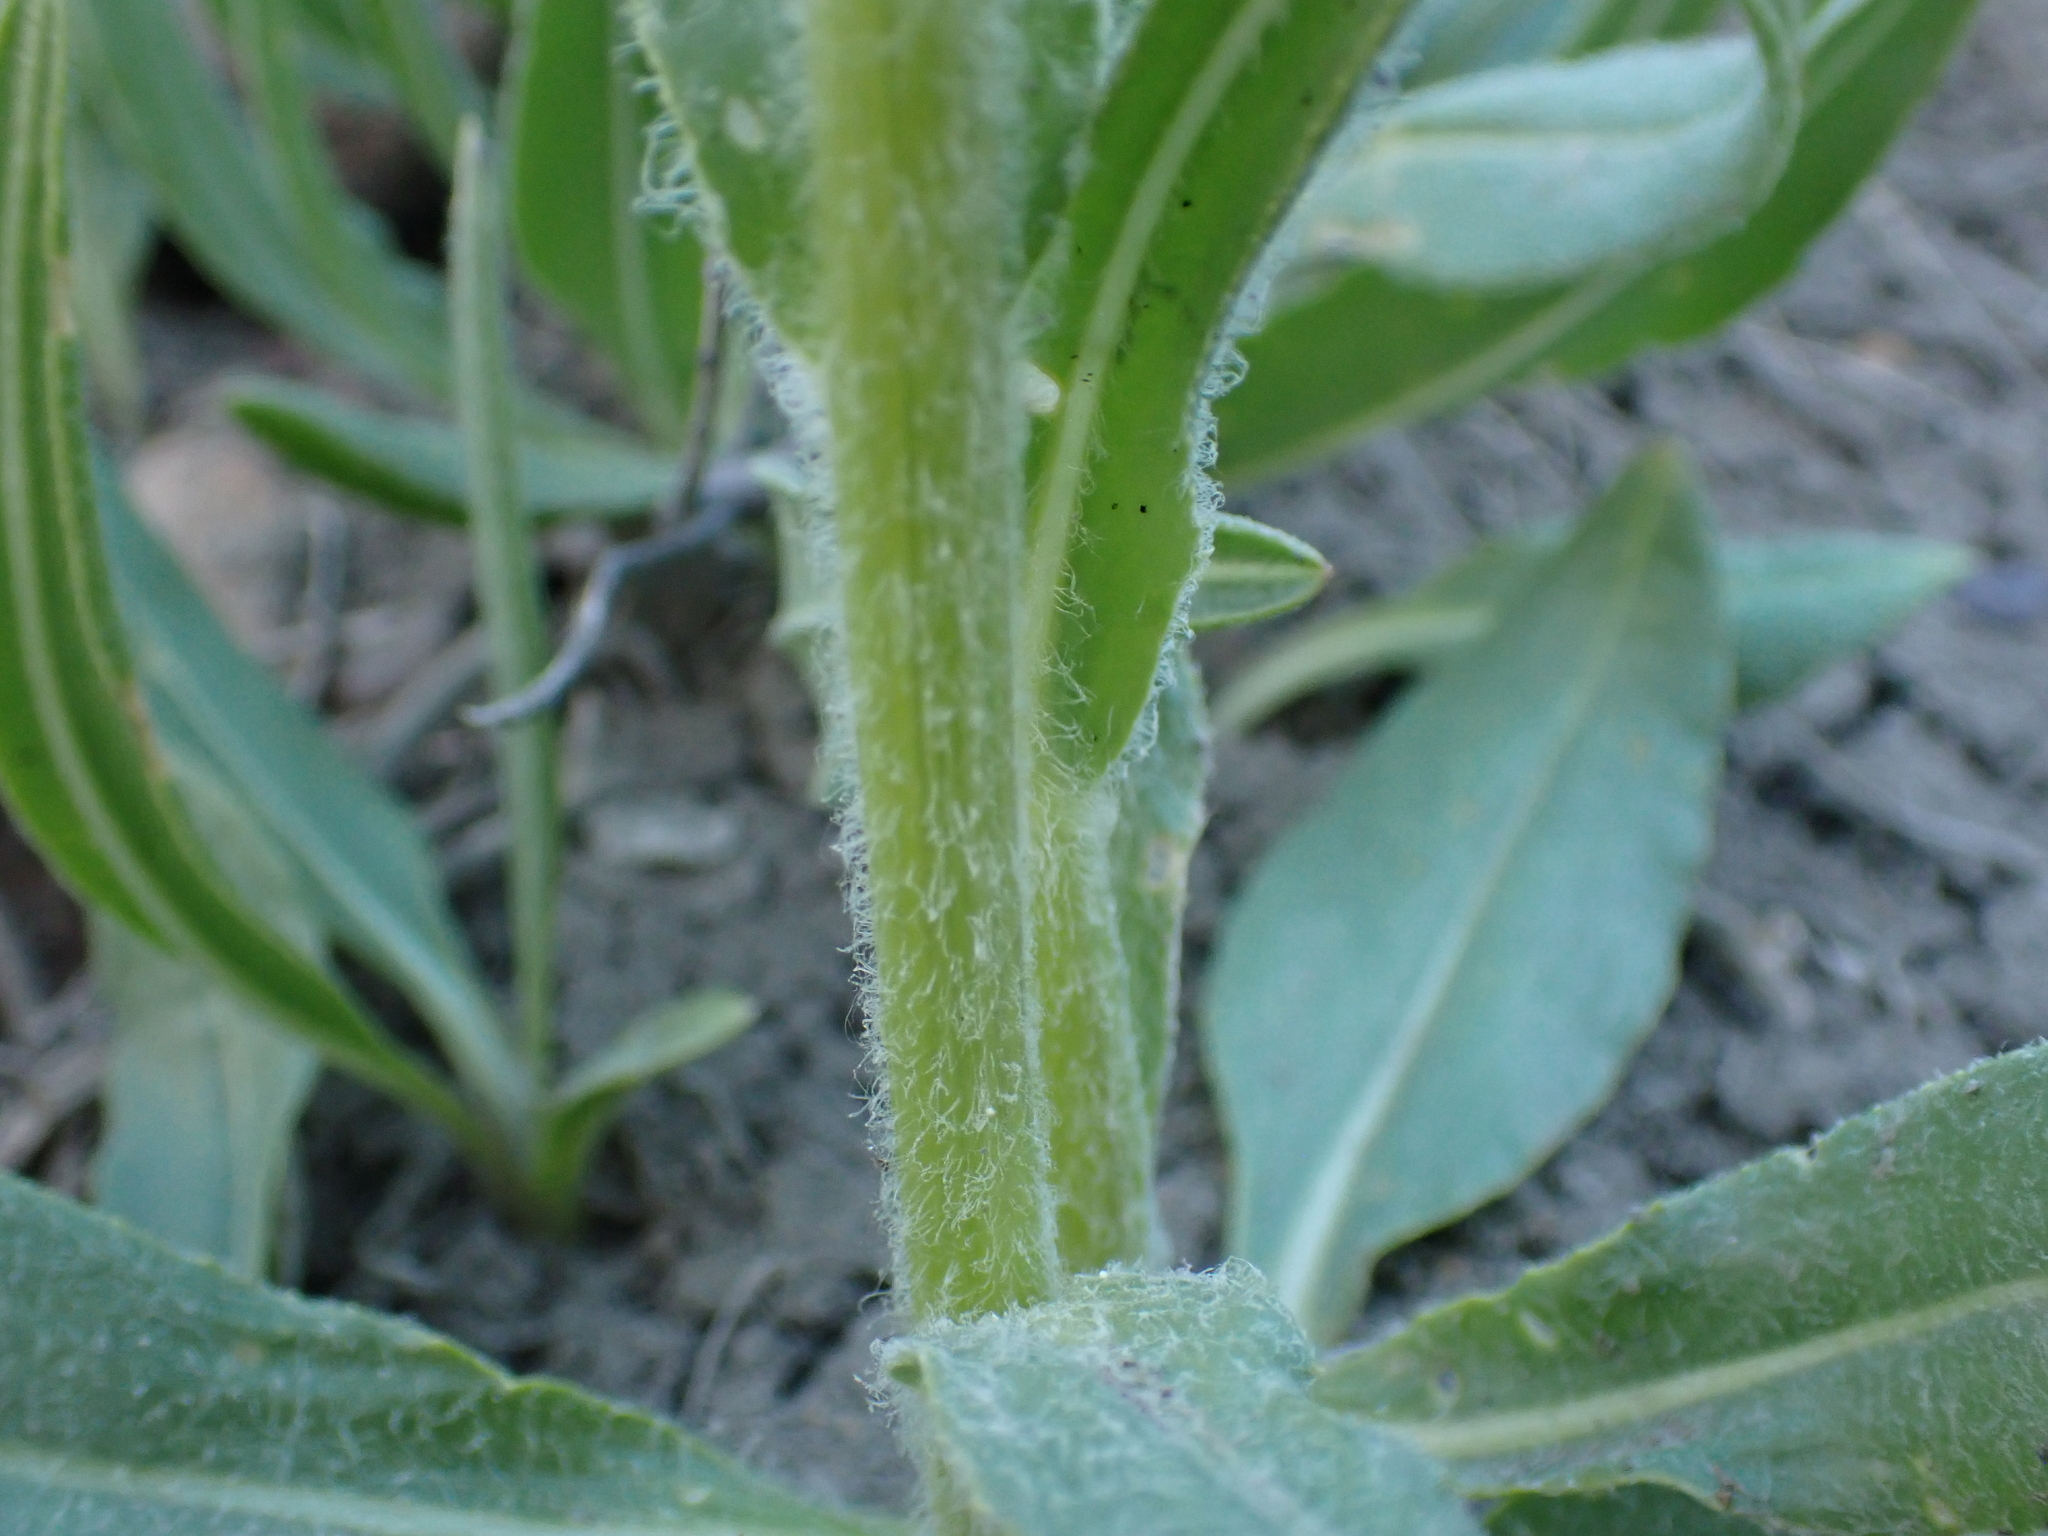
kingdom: Plantae
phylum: Tracheophyta
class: Magnoliopsida
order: Asterales
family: Asteraceae
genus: Senecio
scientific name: Senecio integerrimus
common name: Gaugeplant
